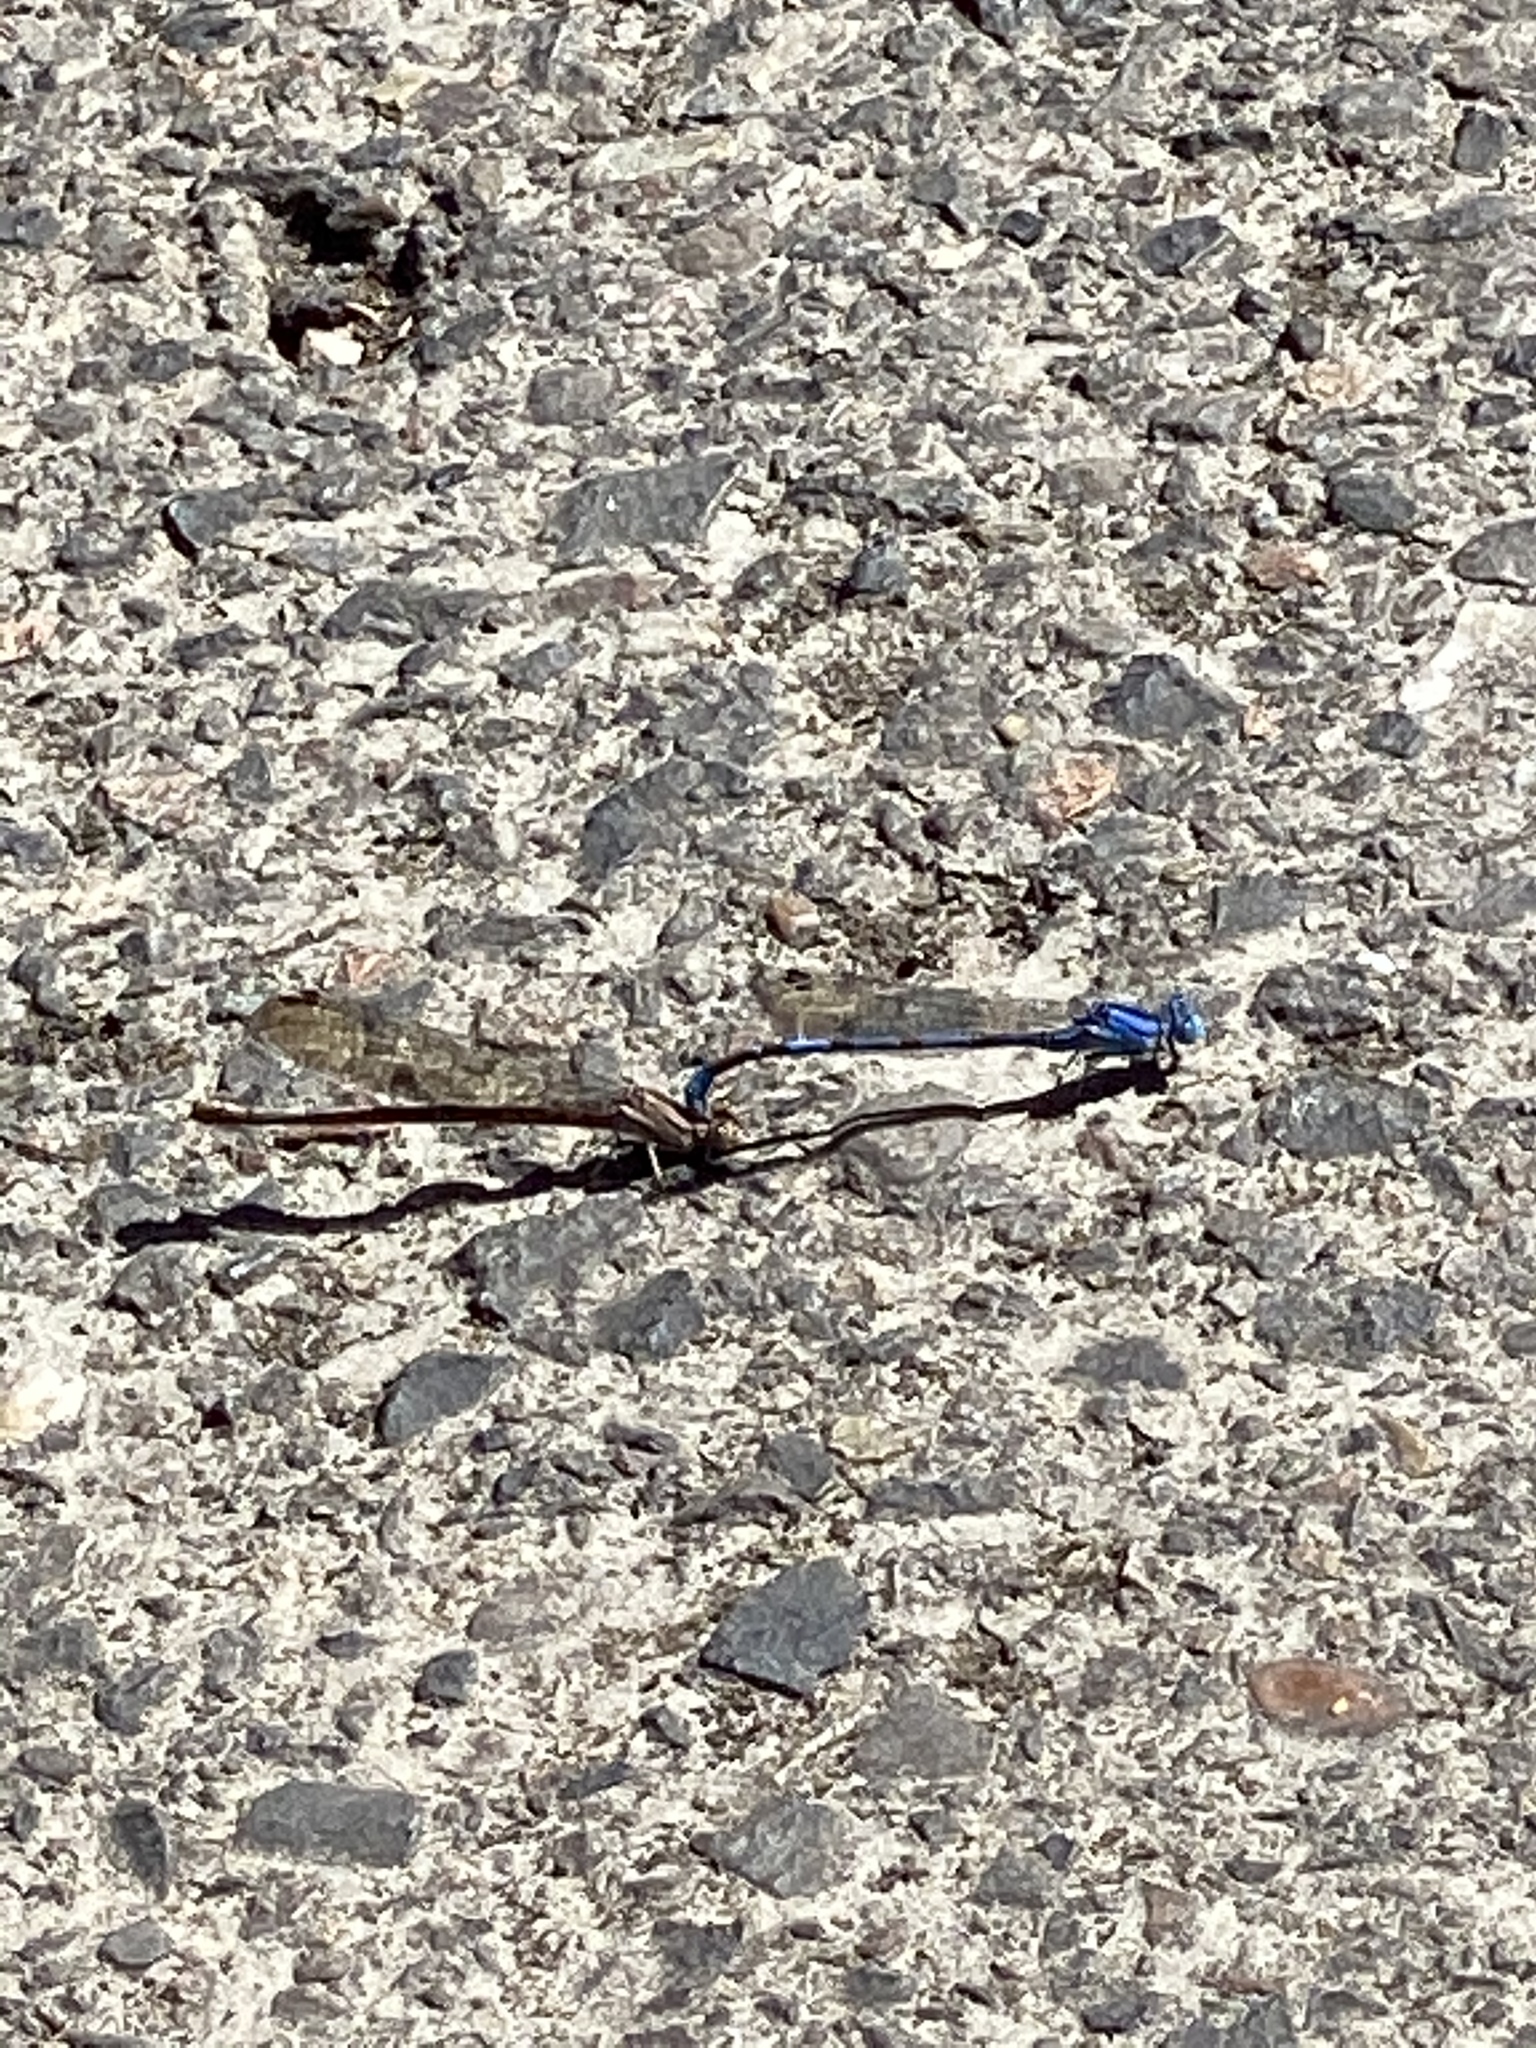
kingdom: Animalia
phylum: Arthropoda
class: Insecta
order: Odonata
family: Coenagrionidae
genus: Argia
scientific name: Argia vivida
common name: Vivid dancer
